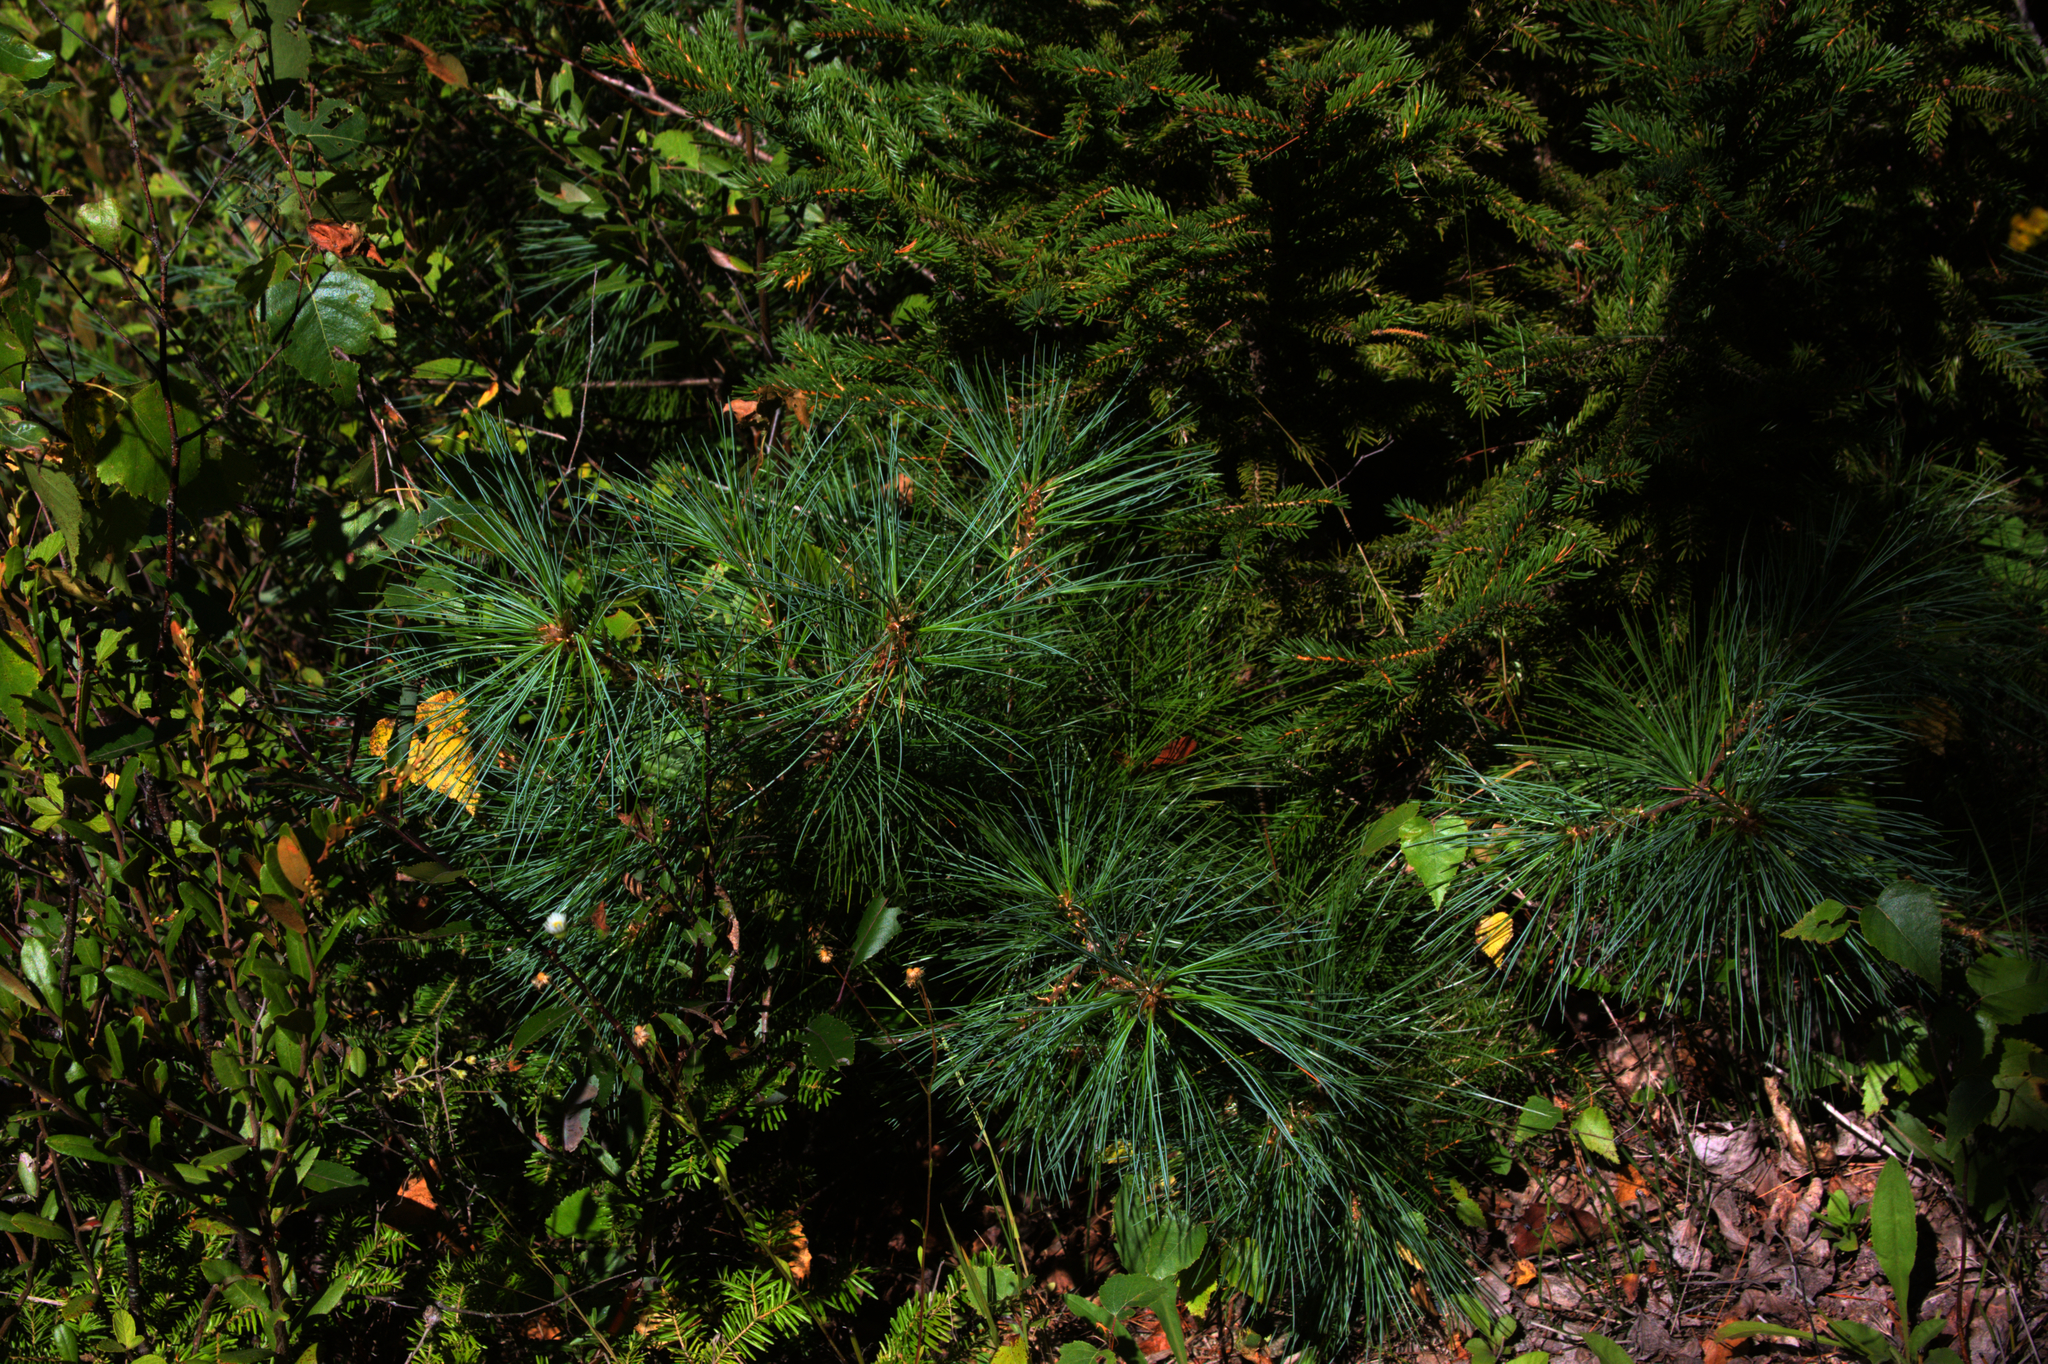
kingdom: Plantae
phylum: Tracheophyta
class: Pinopsida
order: Pinales
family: Pinaceae
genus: Pinus
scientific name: Pinus strobus
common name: Weymouth pine
